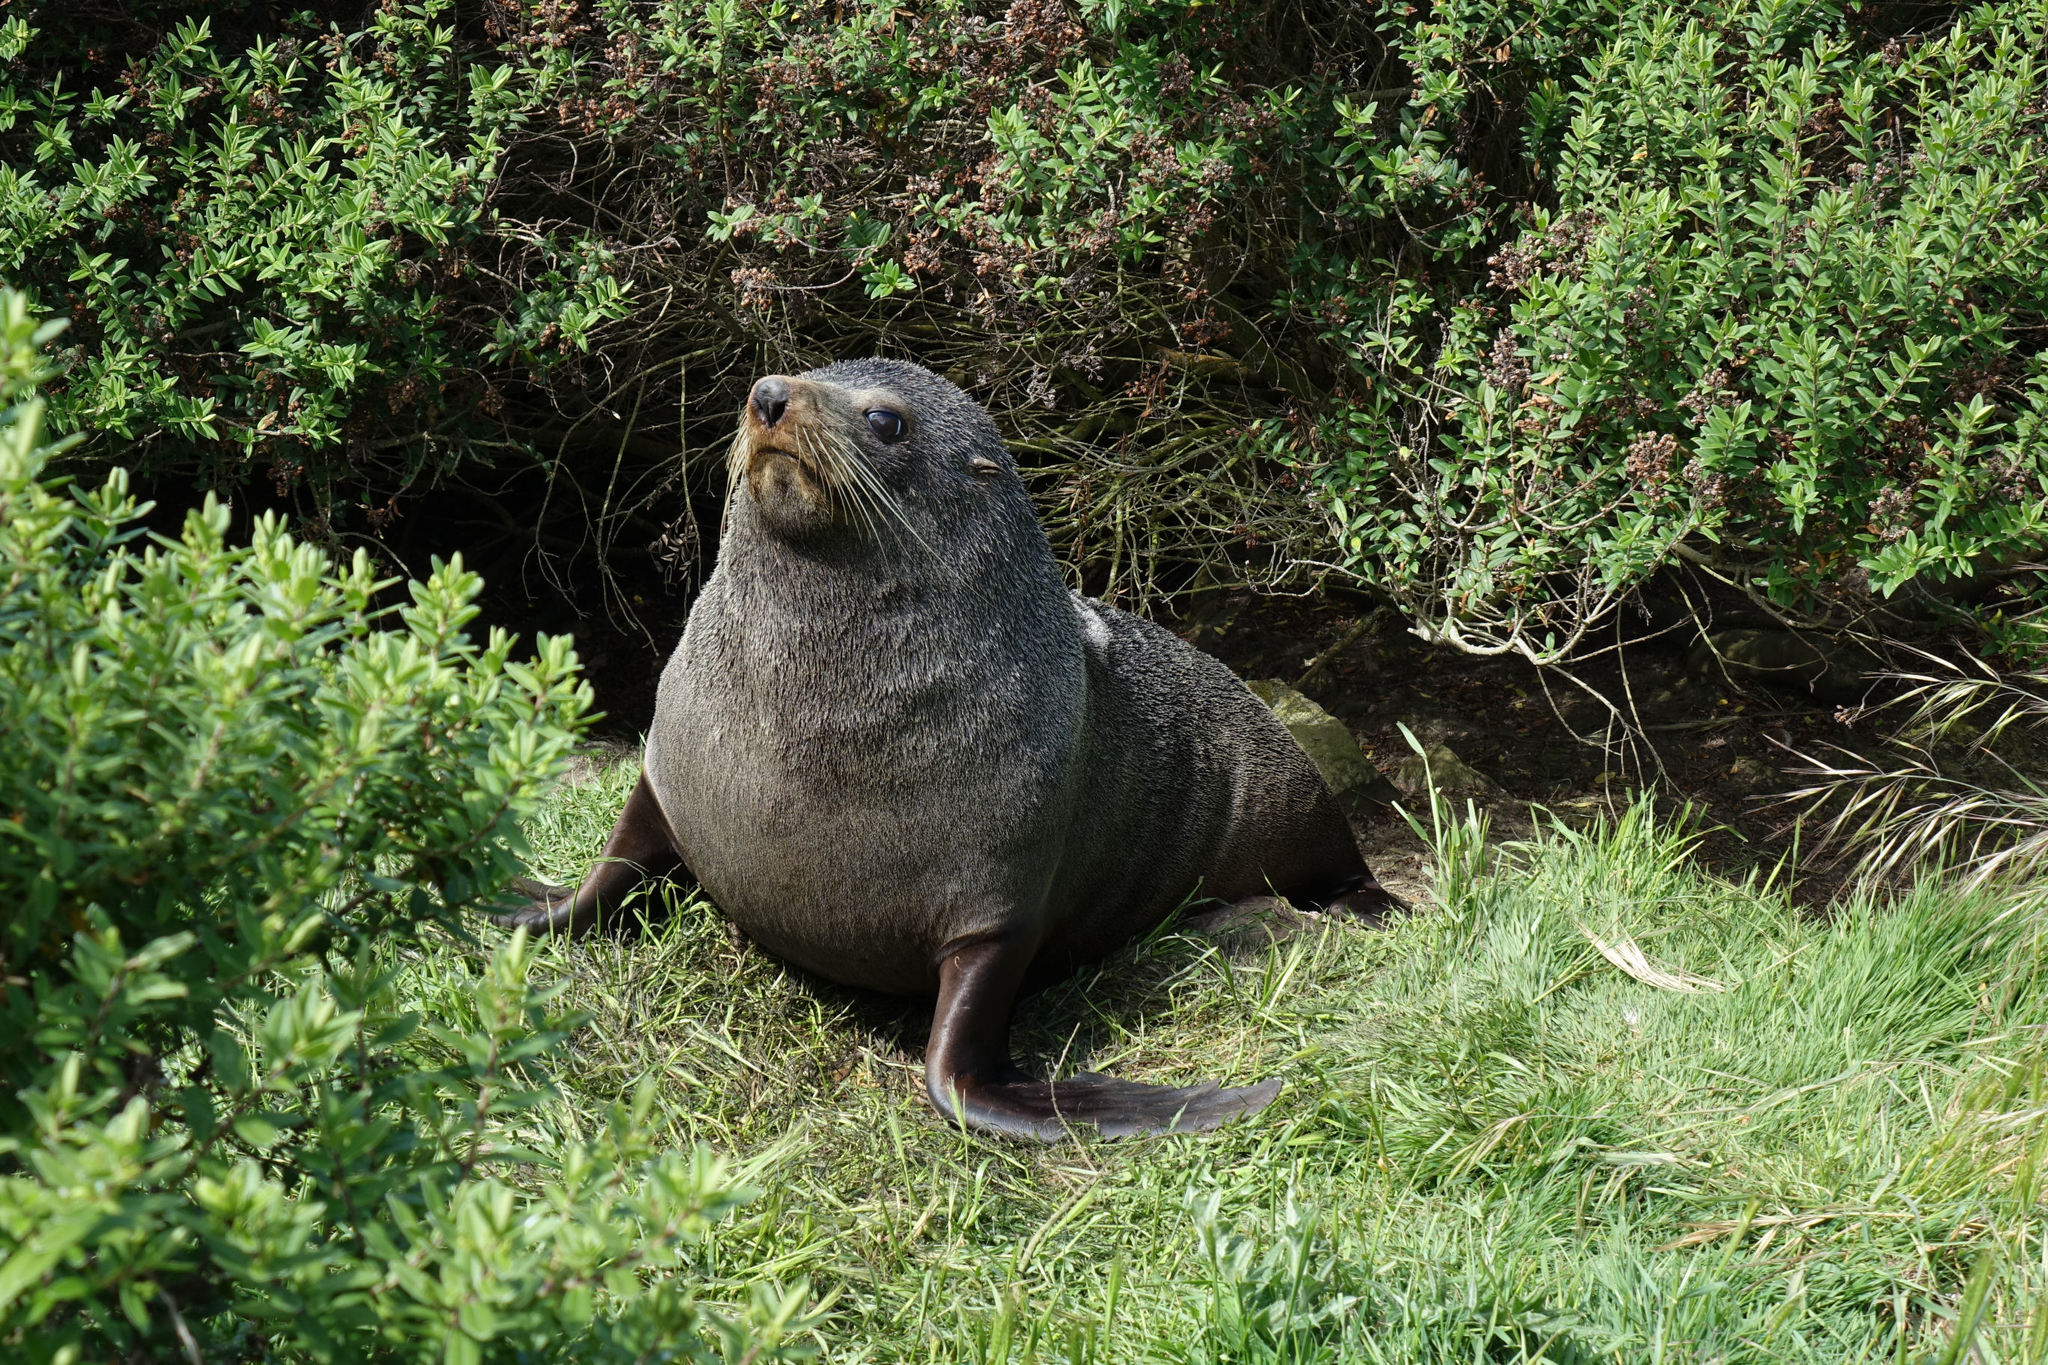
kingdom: Animalia
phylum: Chordata
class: Mammalia
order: Carnivora
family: Otariidae
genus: Arctocephalus
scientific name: Arctocephalus forsteri
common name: New zealand fur seal
